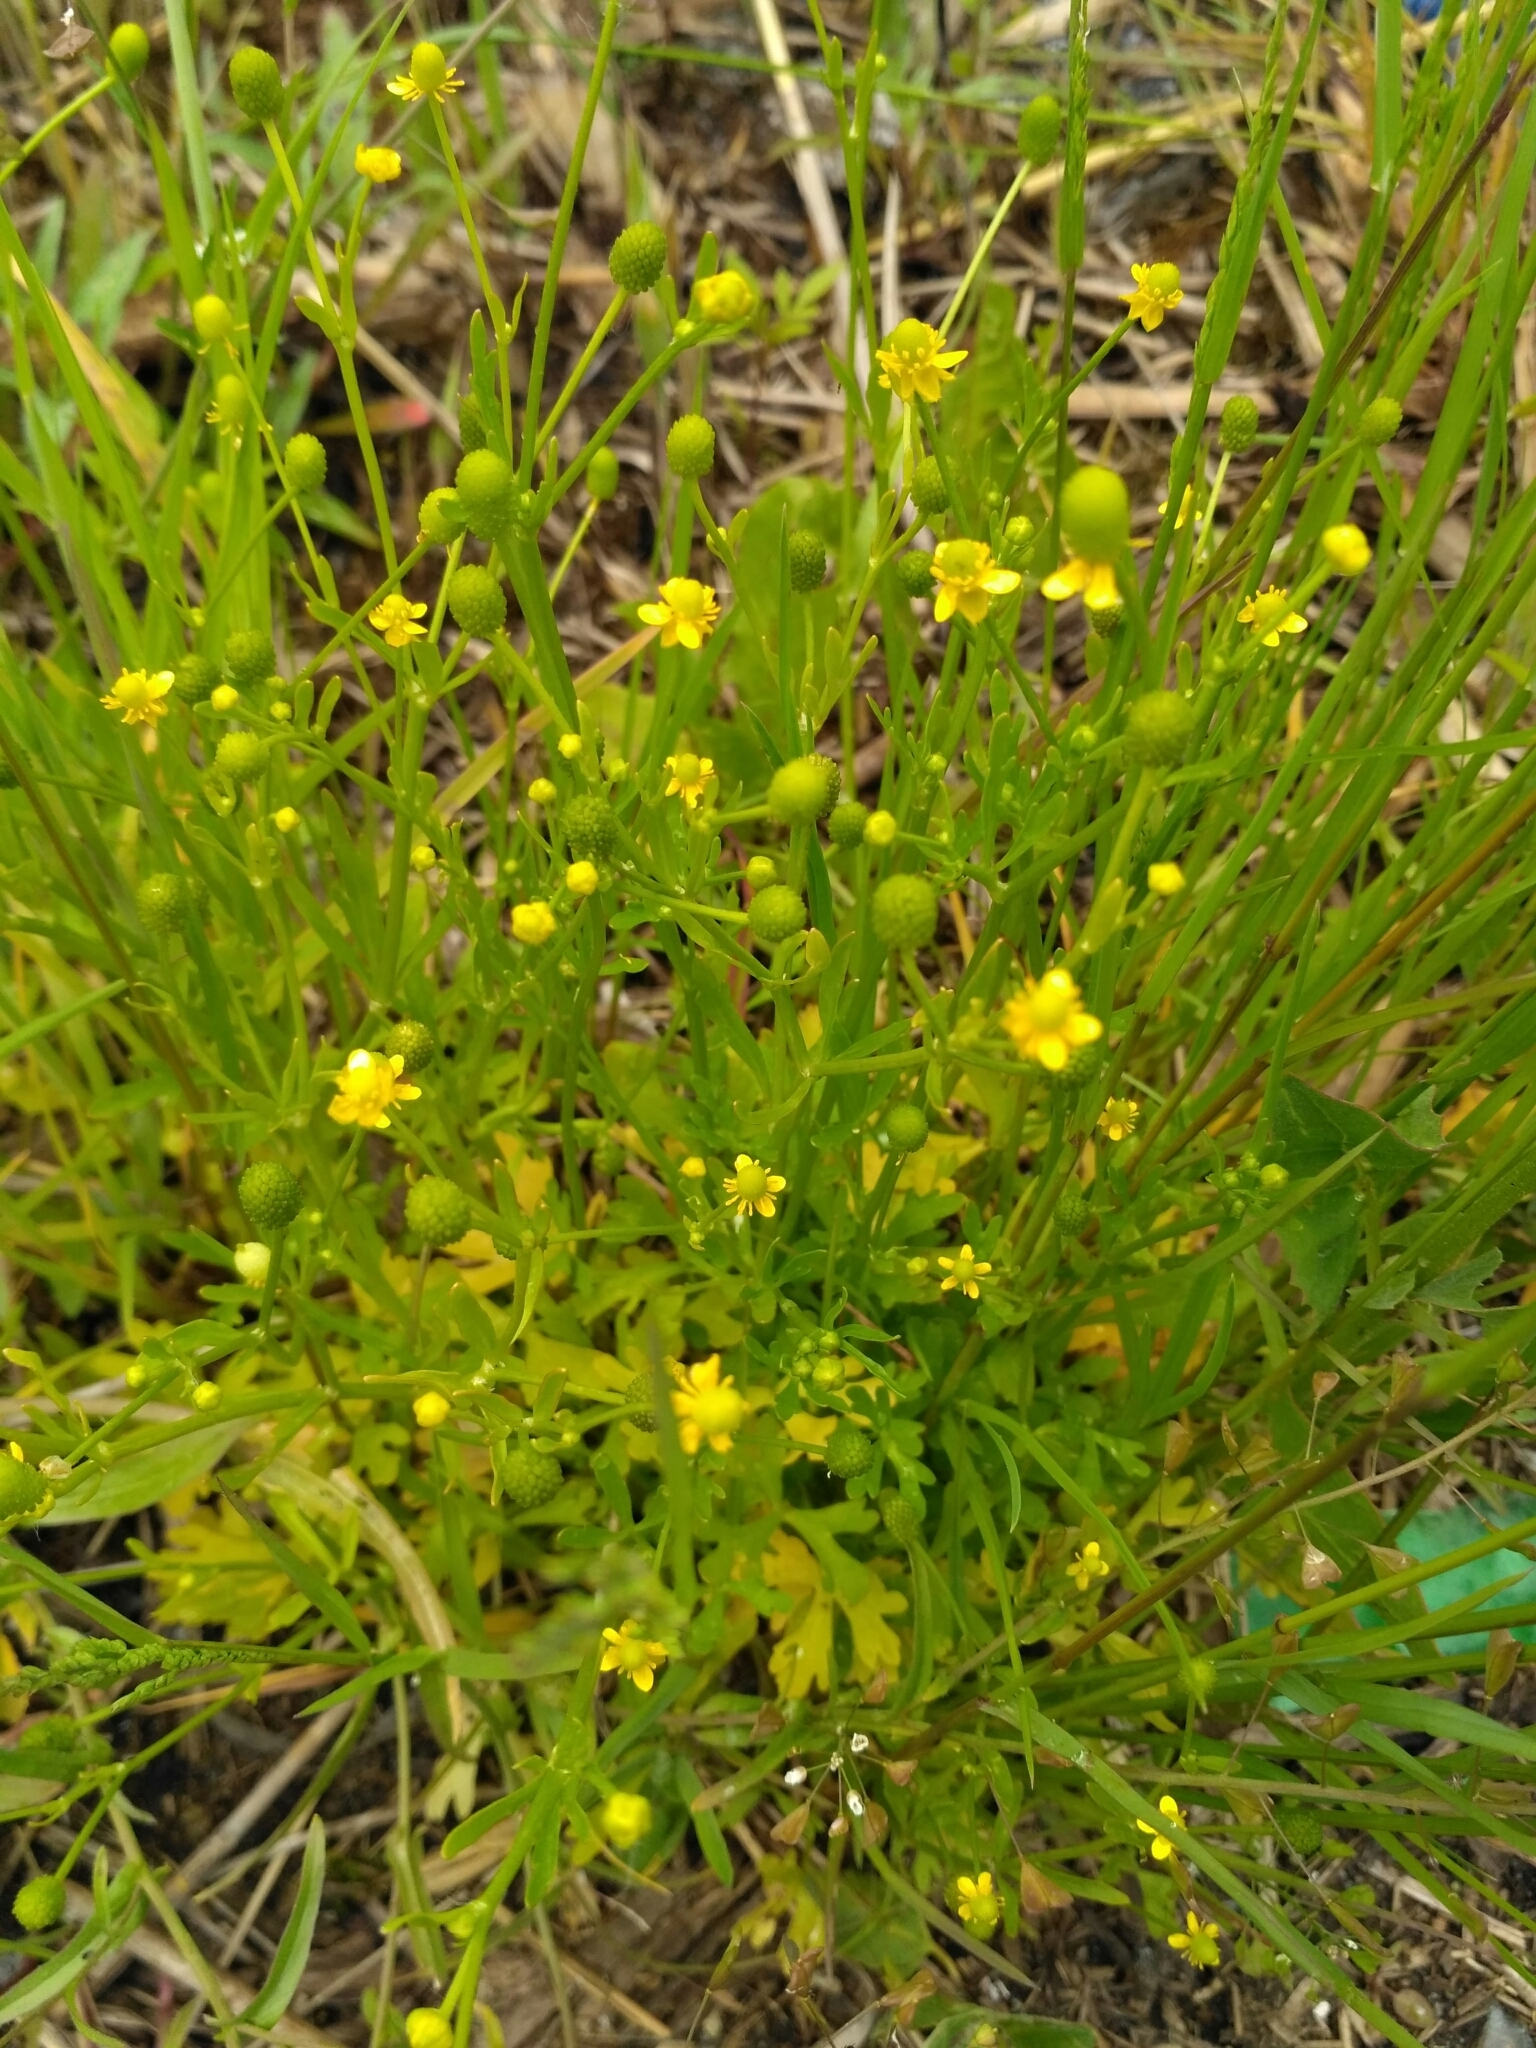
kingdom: Plantae
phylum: Tracheophyta
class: Magnoliopsida
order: Ranunculales
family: Ranunculaceae
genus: Ranunculus
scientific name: Ranunculus sceleratus
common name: Celery-leaved buttercup
